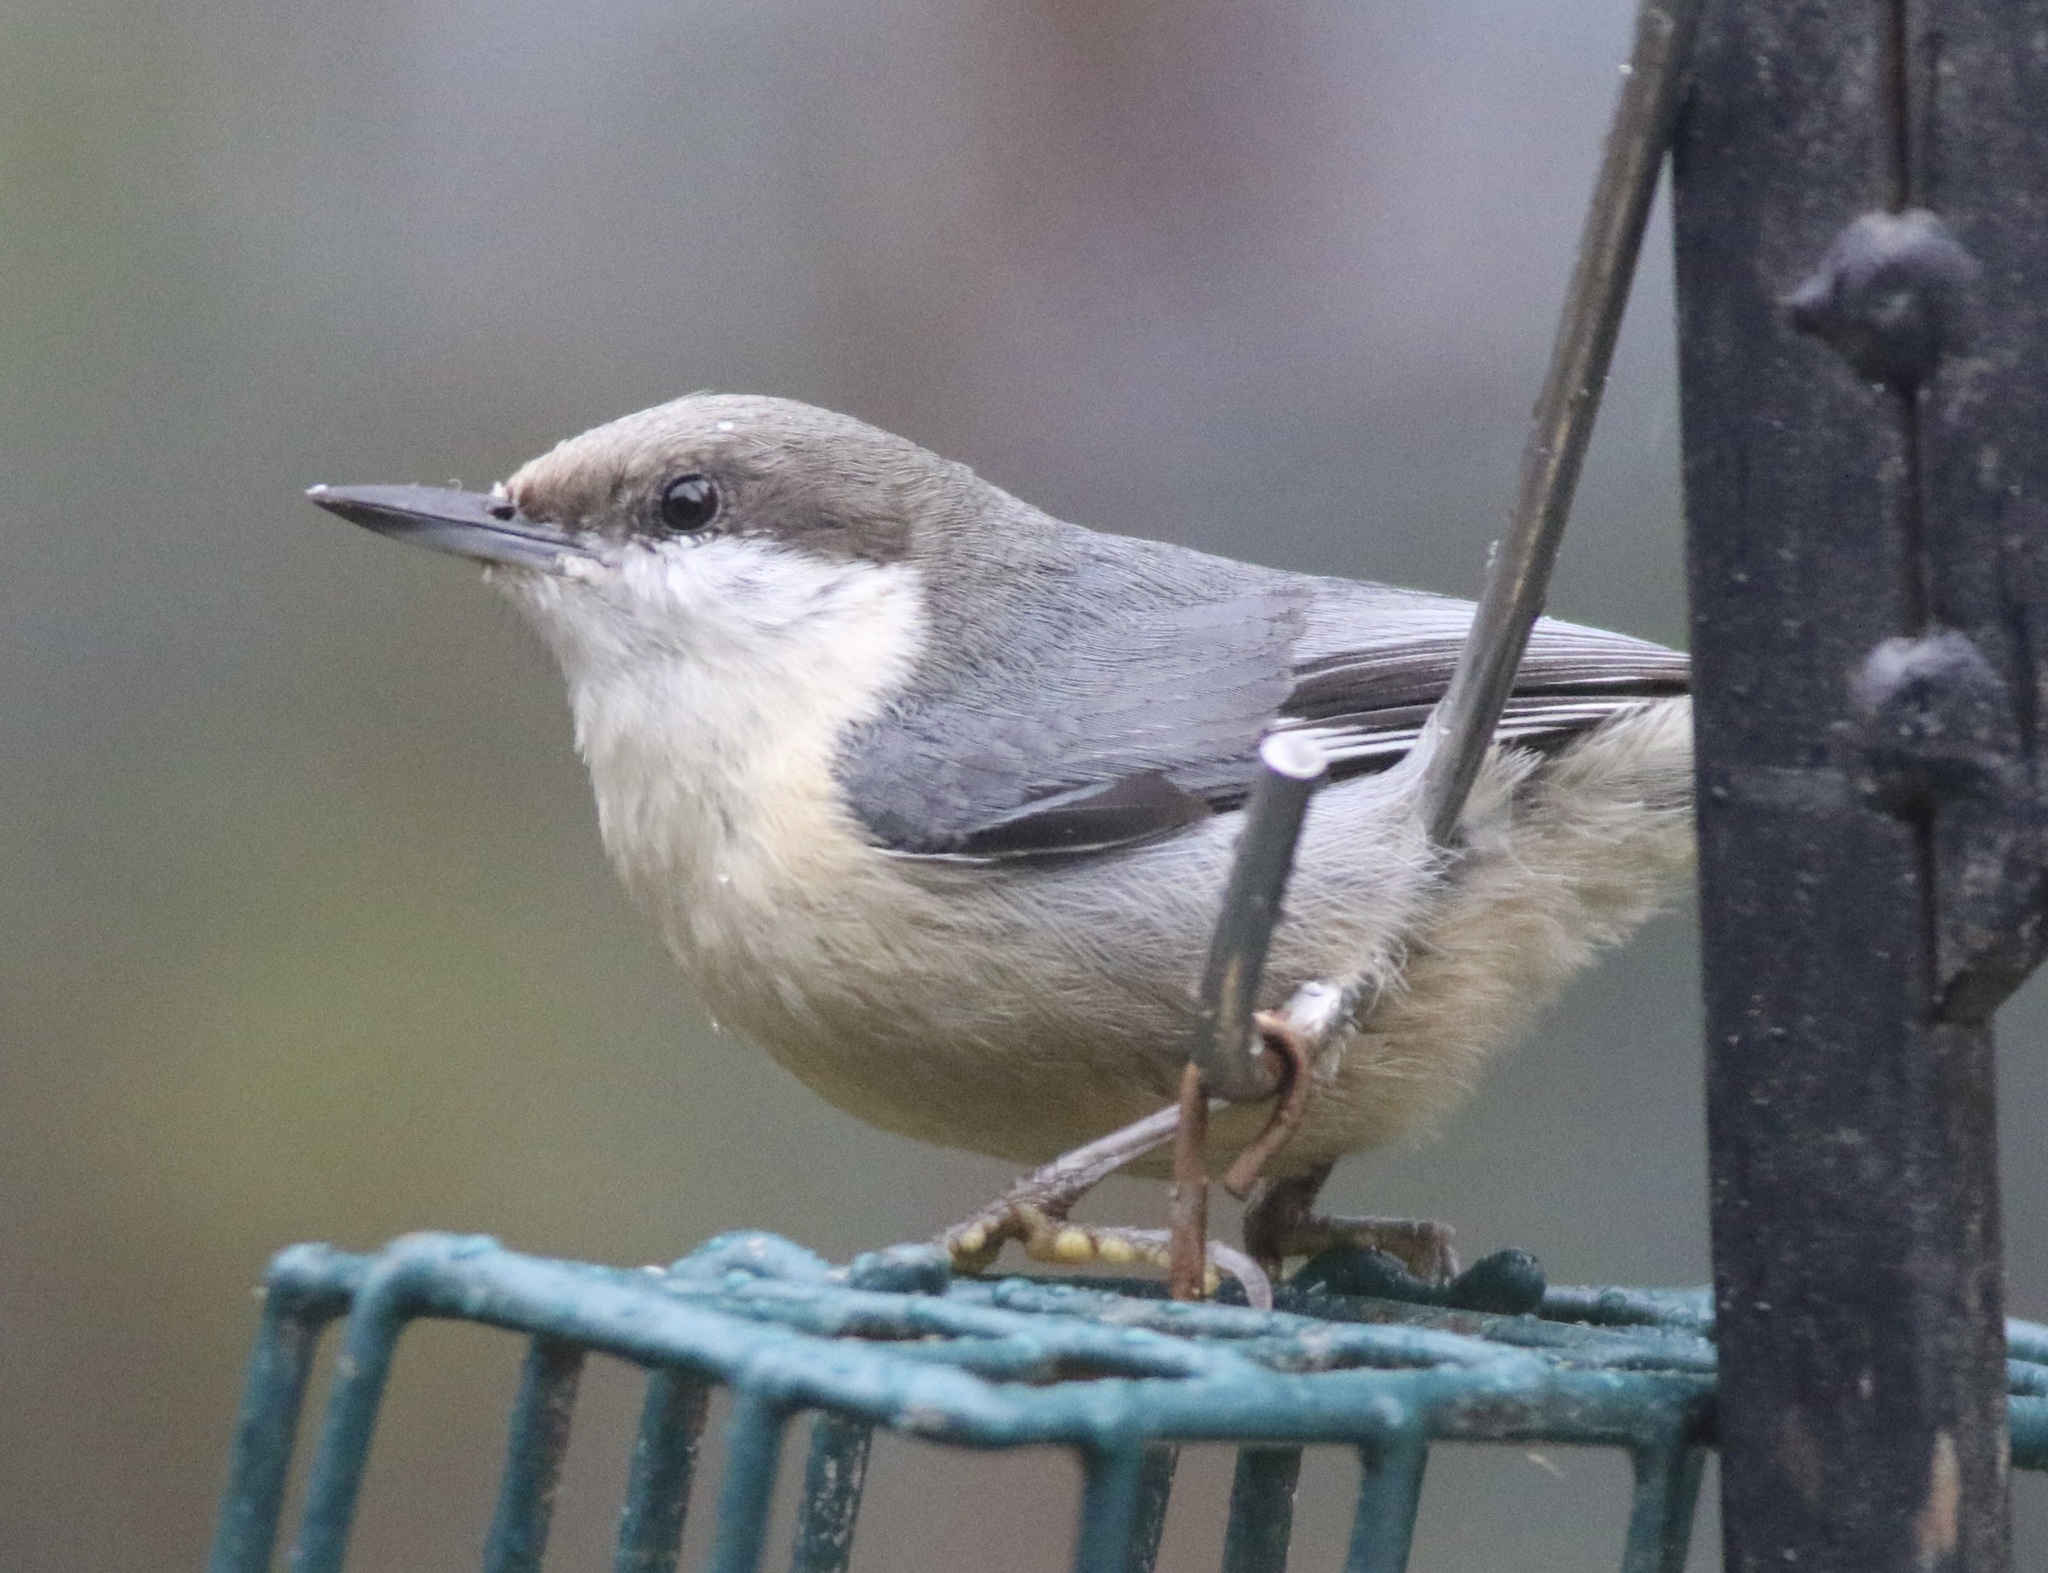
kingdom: Animalia
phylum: Chordata
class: Aves
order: Passeriformes
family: Sittidae
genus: Sitta
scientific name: Sitta pygmaea
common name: Pygmy nuthatch
